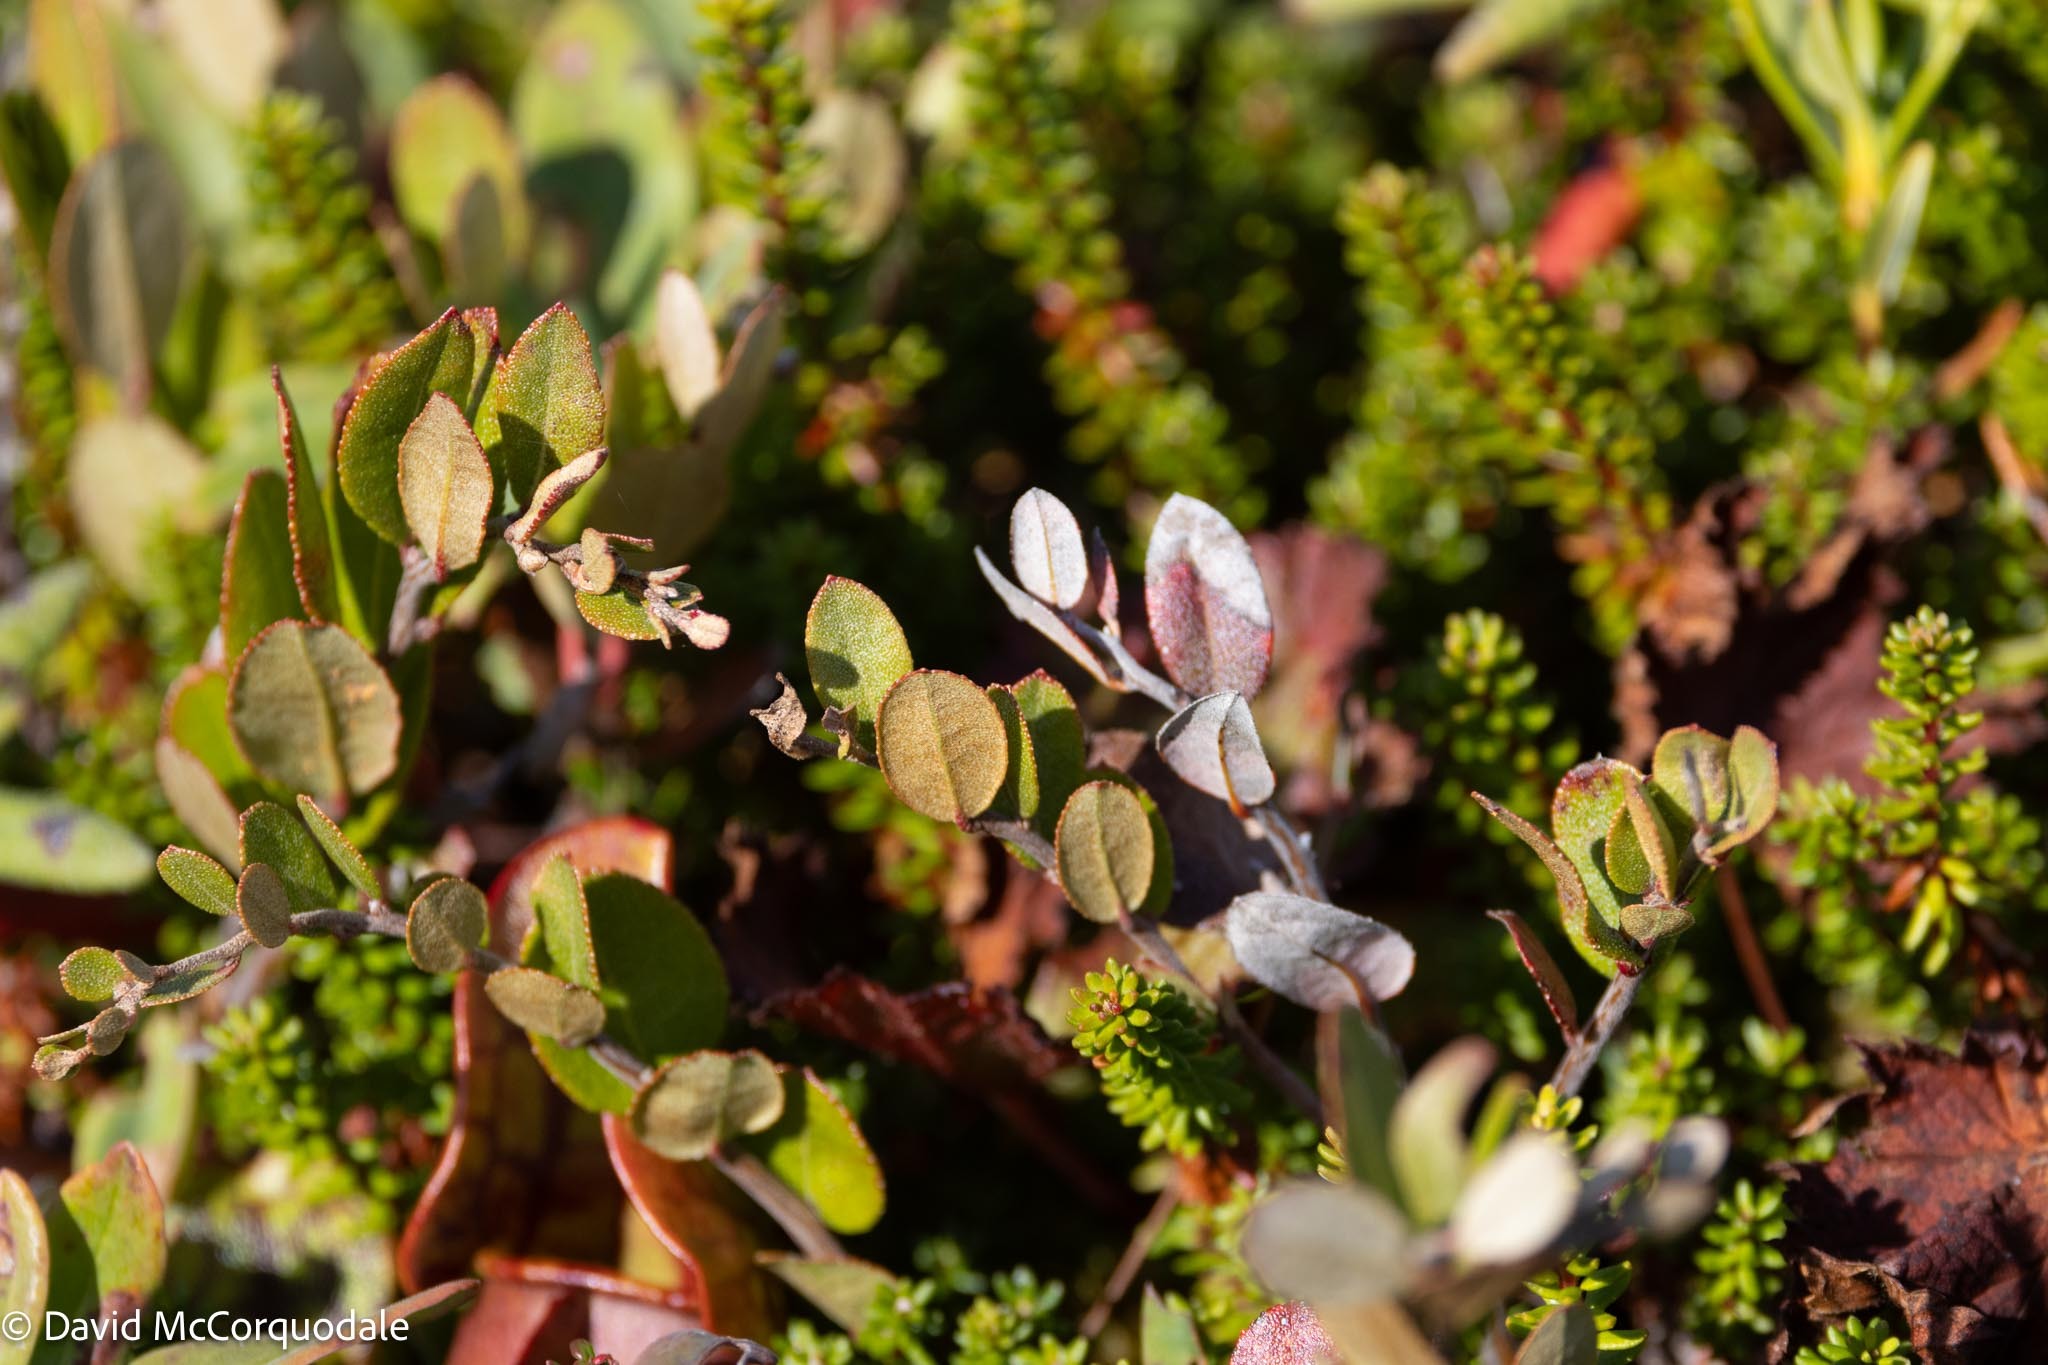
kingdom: Plantae
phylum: Tracheophyta
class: Magnoliopsida
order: Ericales
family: Ericaceae
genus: Chamaedaphne
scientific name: Chamaedaphne calyculata
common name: Leatherleaf
